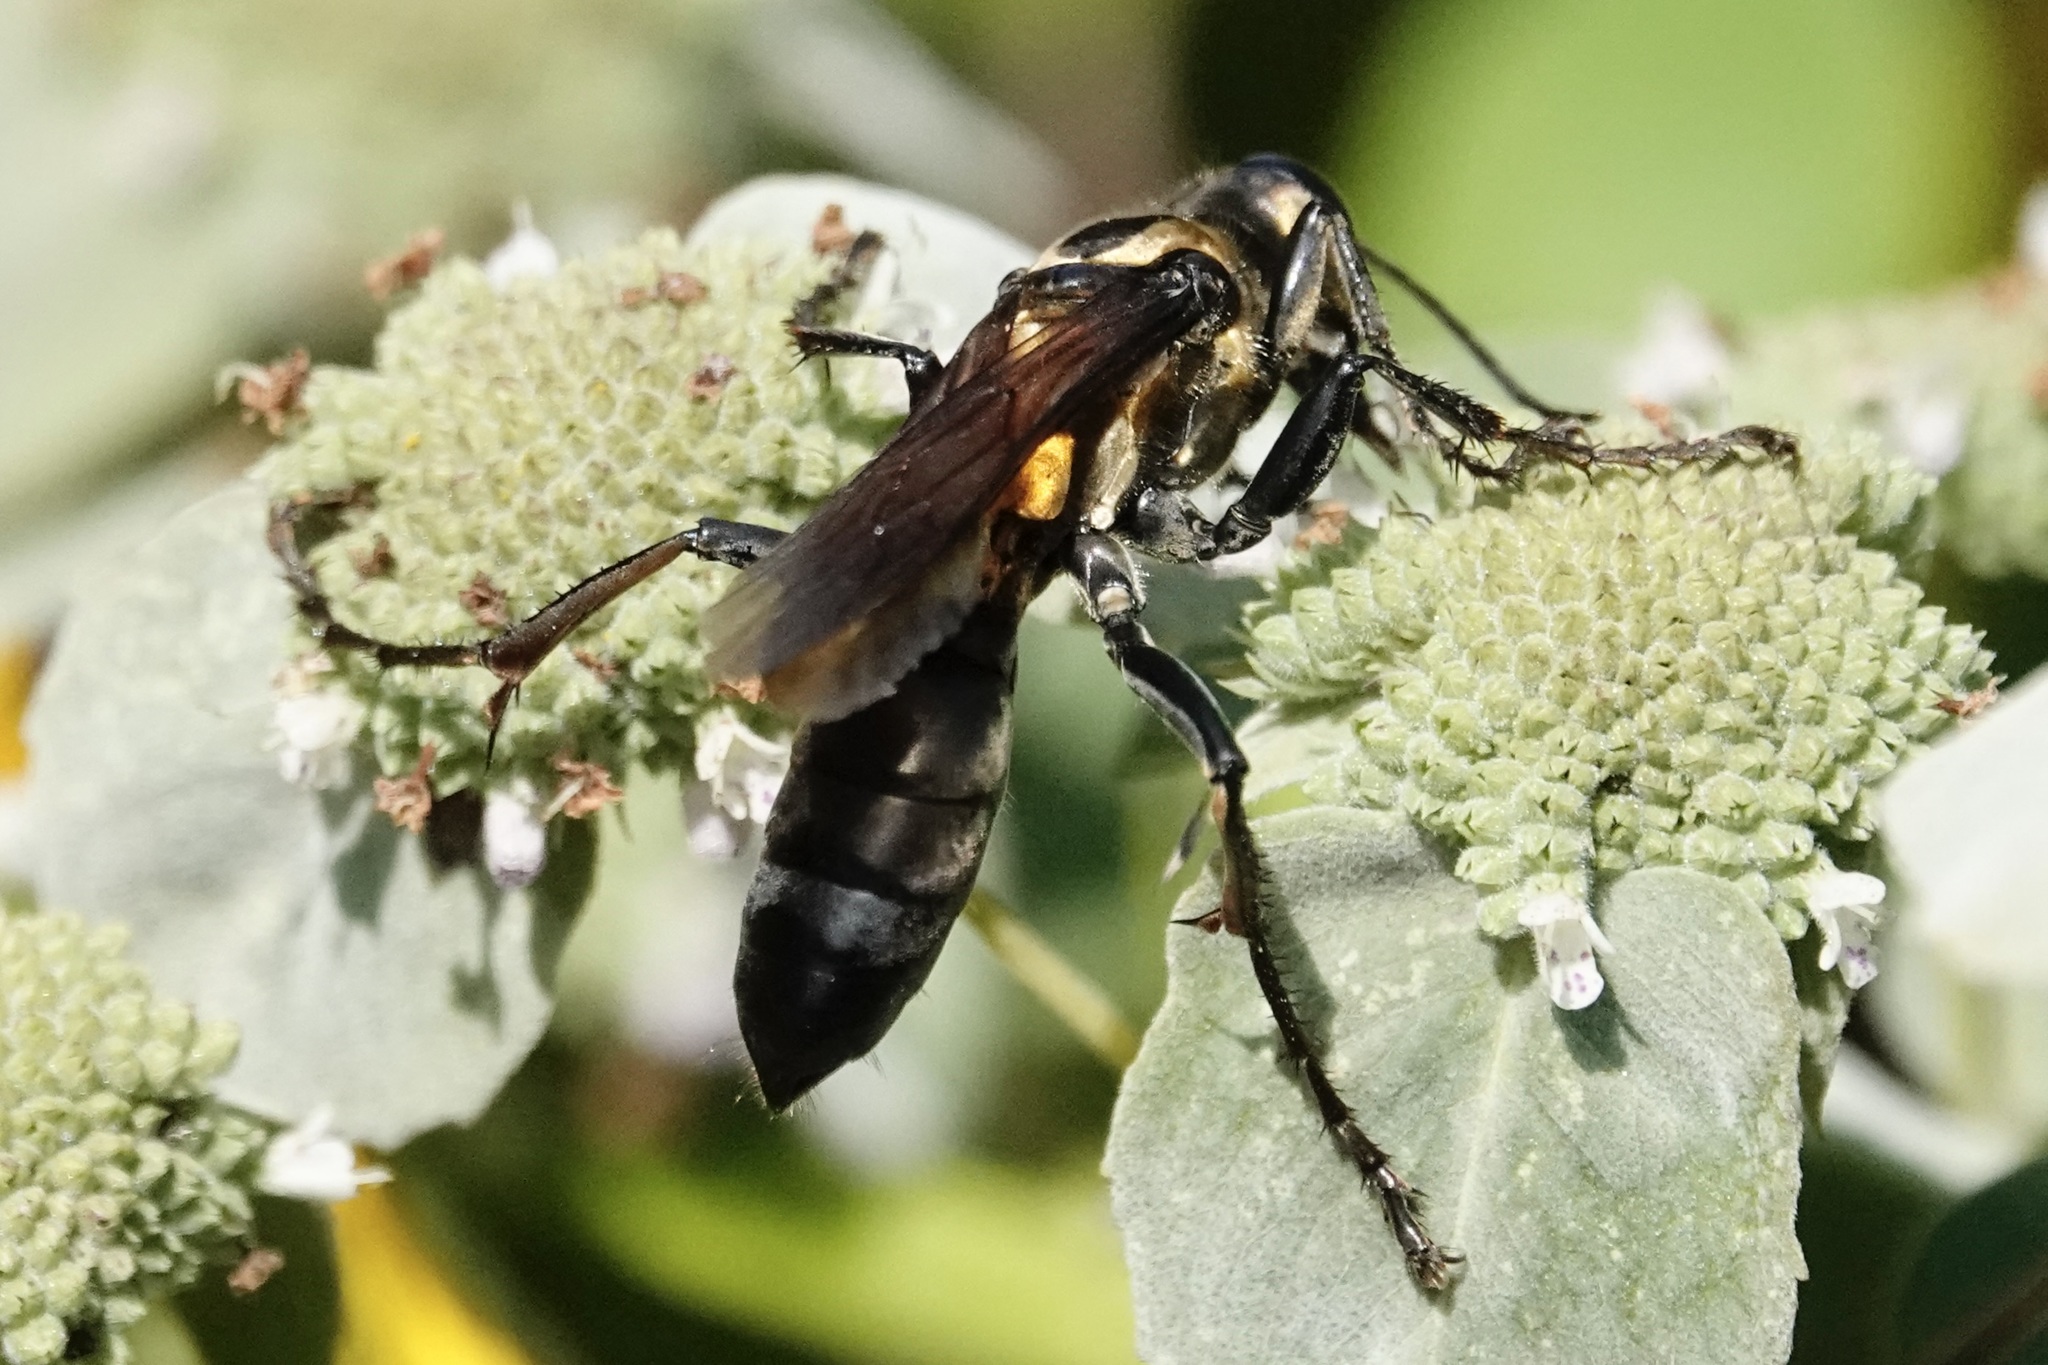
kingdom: Animalia
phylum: Arthropoda
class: Insecta
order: Hymenoptera
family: Sphecidae
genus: Sphex
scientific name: Sphex habenus
